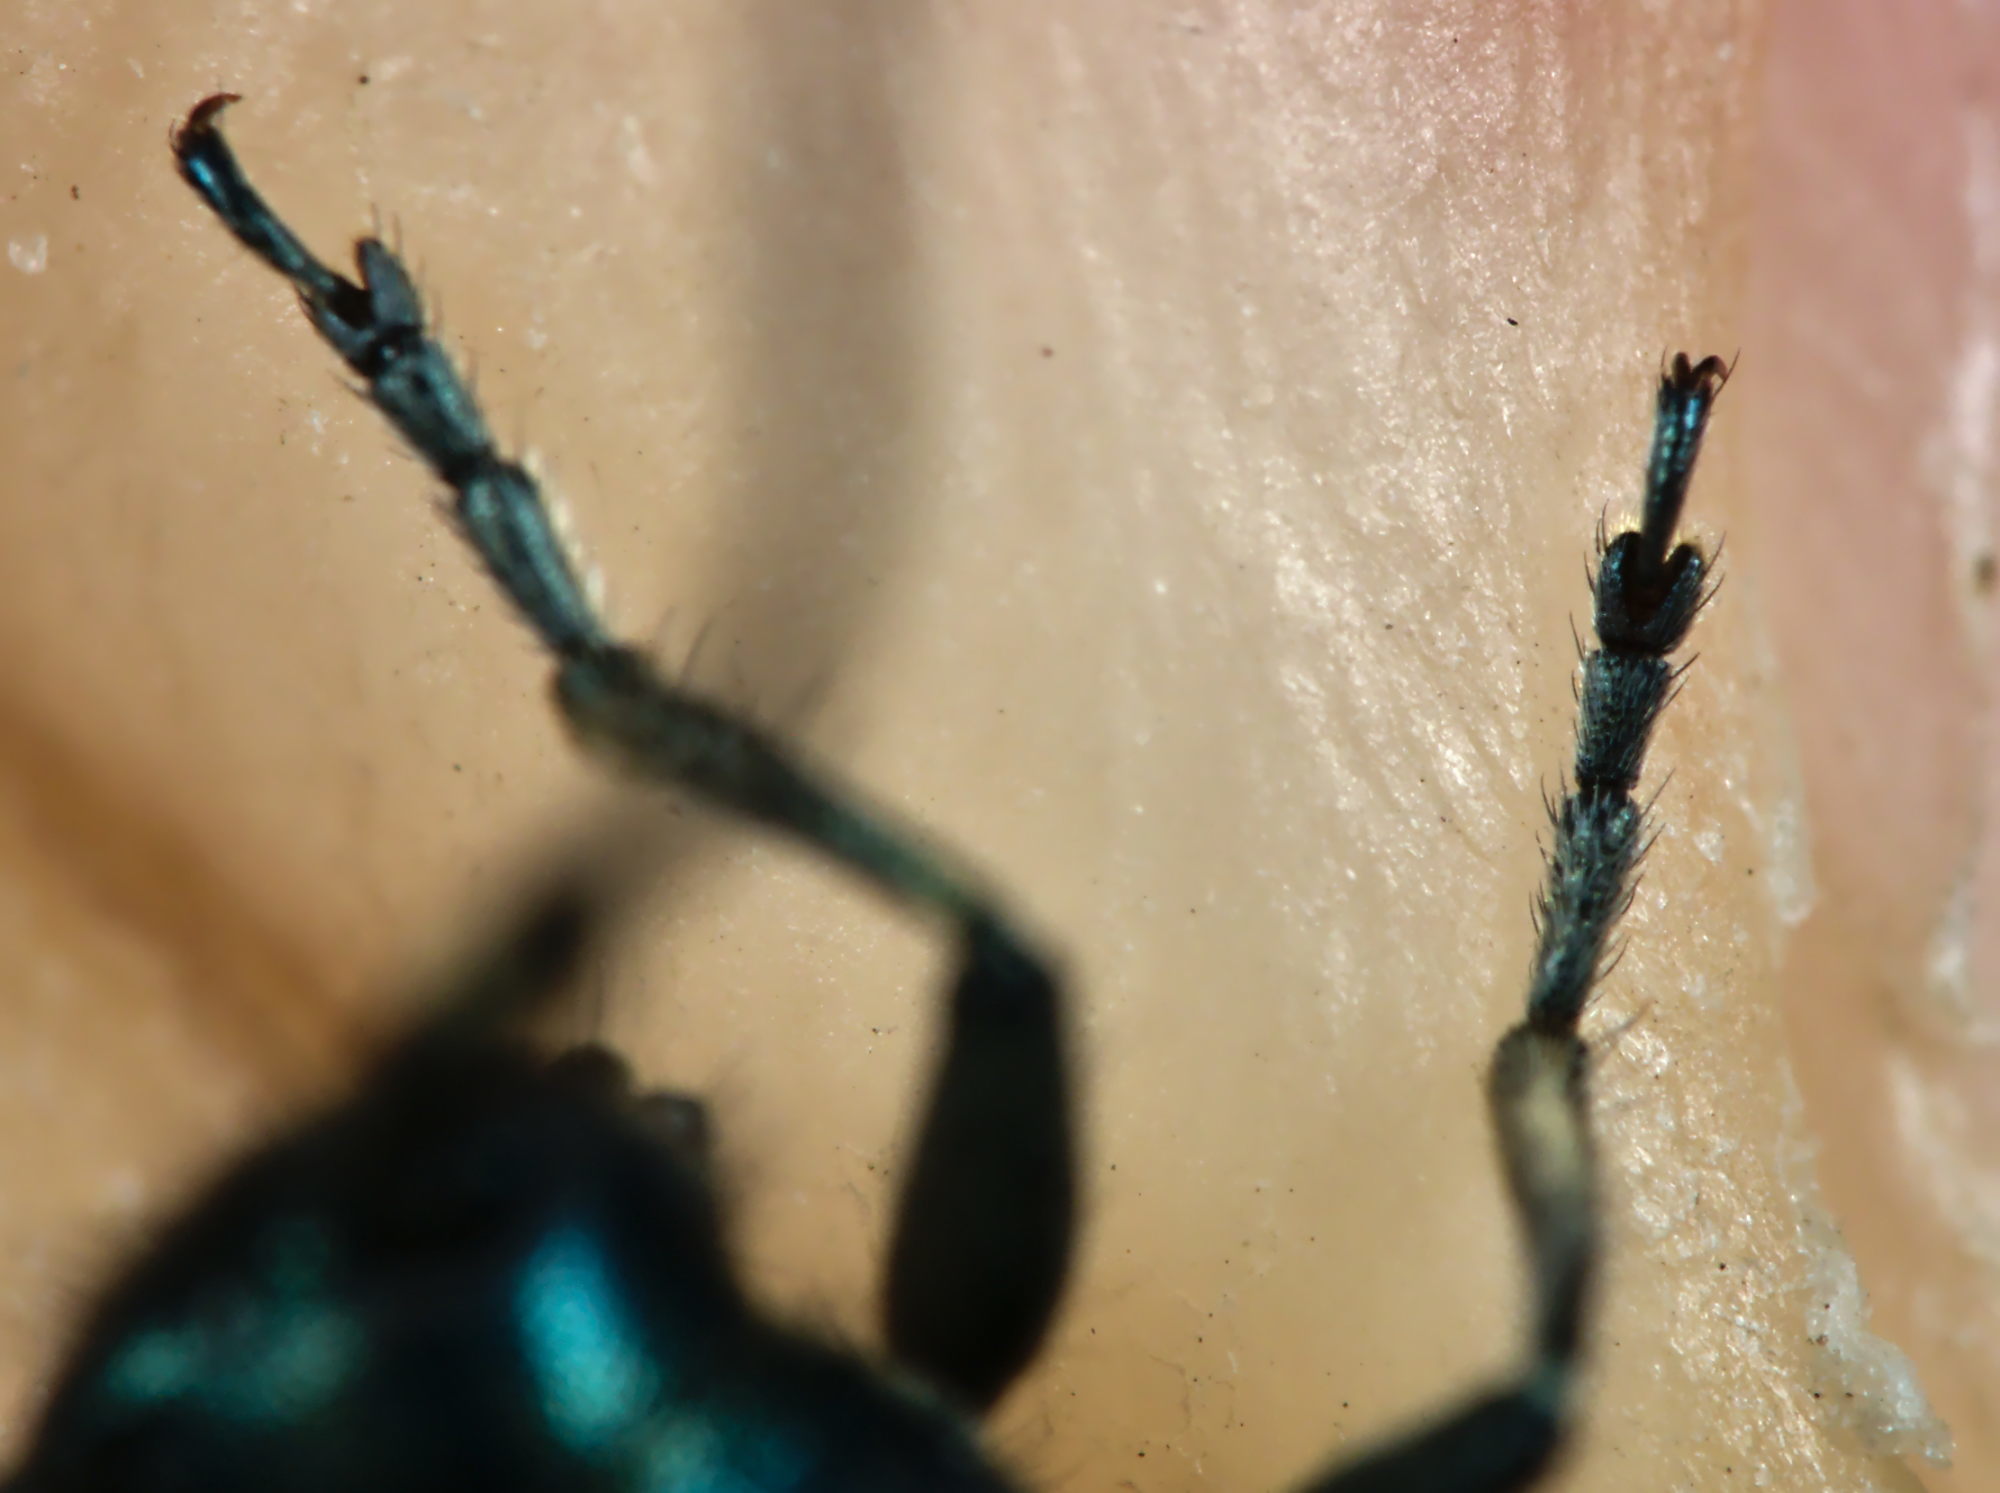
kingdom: Animalia
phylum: Arthropoda
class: Insecta
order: Coleoptera
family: Cerambycidae
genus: Agapanthia
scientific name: Agapanthia intermedia
